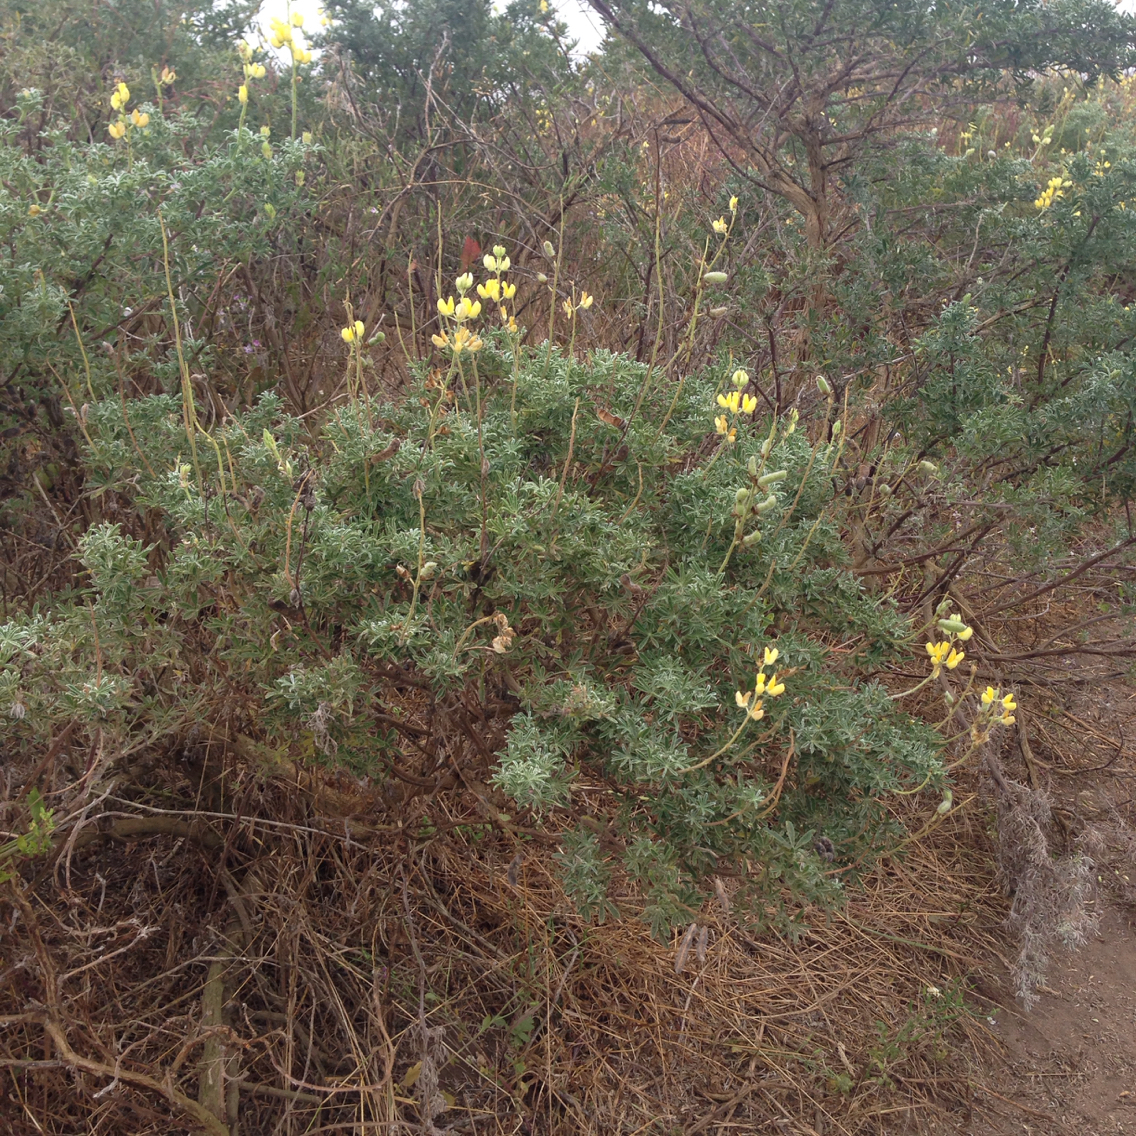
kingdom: Plantae
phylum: Tracheophyta
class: Magnoliopsida
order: Fabales
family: Fabaceae
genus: Lupinus
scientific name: Lupinus arboreus
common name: Yellow bush lupine
